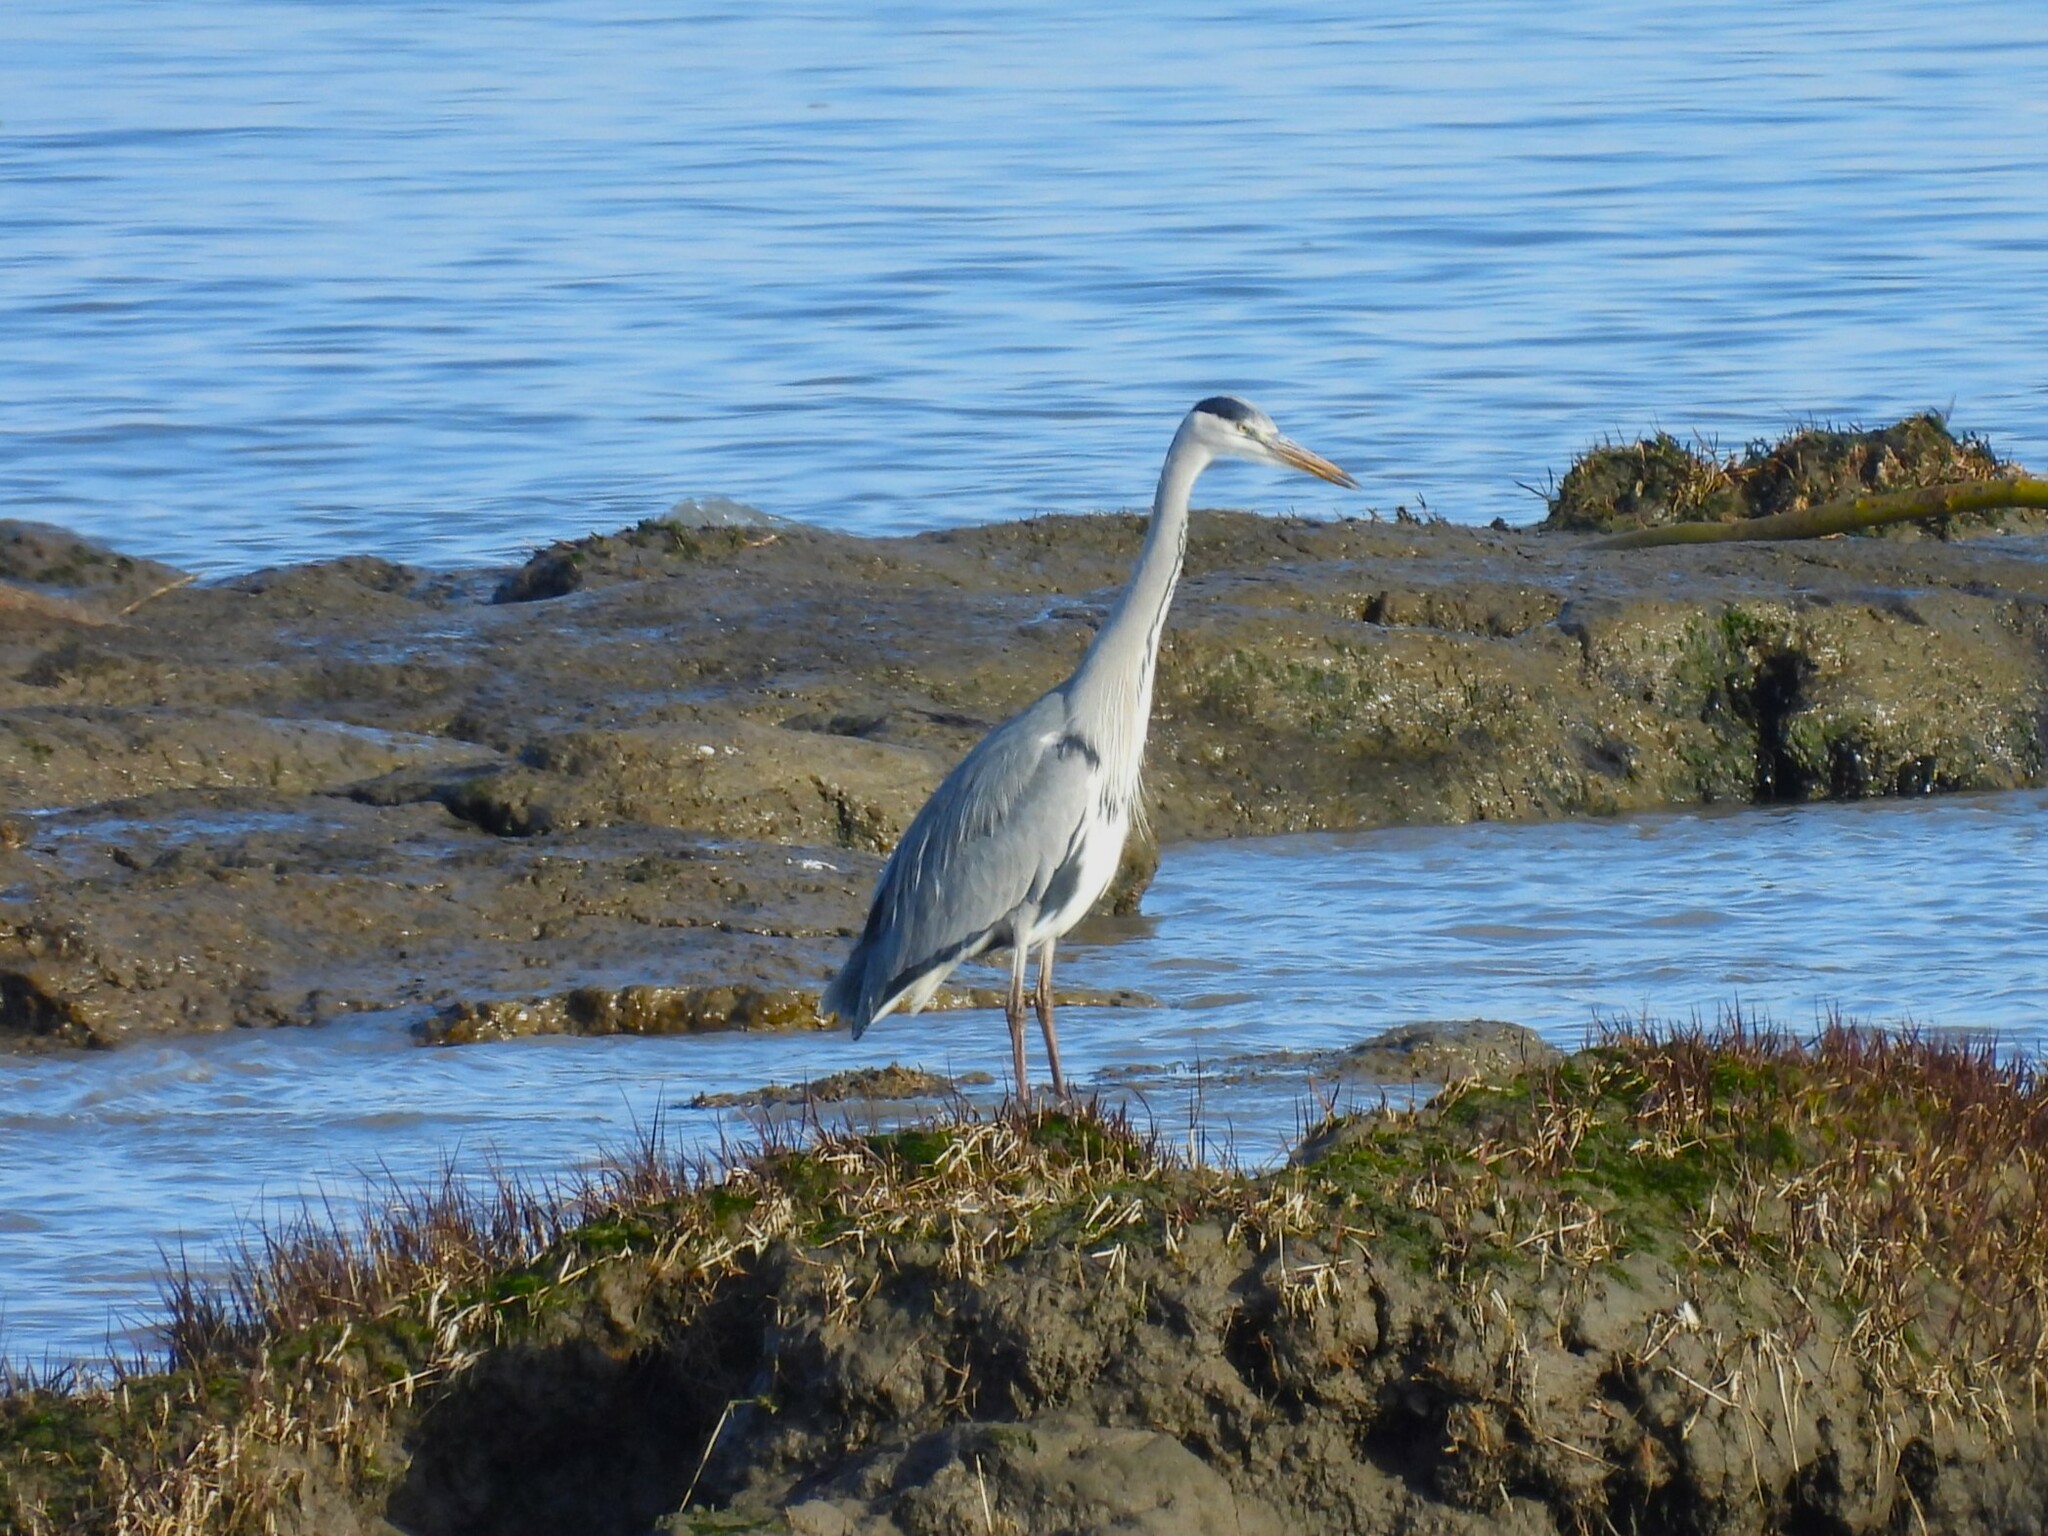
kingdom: Animalia
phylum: Chordata
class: Aves
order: Pelecaniformes
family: Ardeidae
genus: Ardea
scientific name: Ardea cinerea
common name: Grey heron
